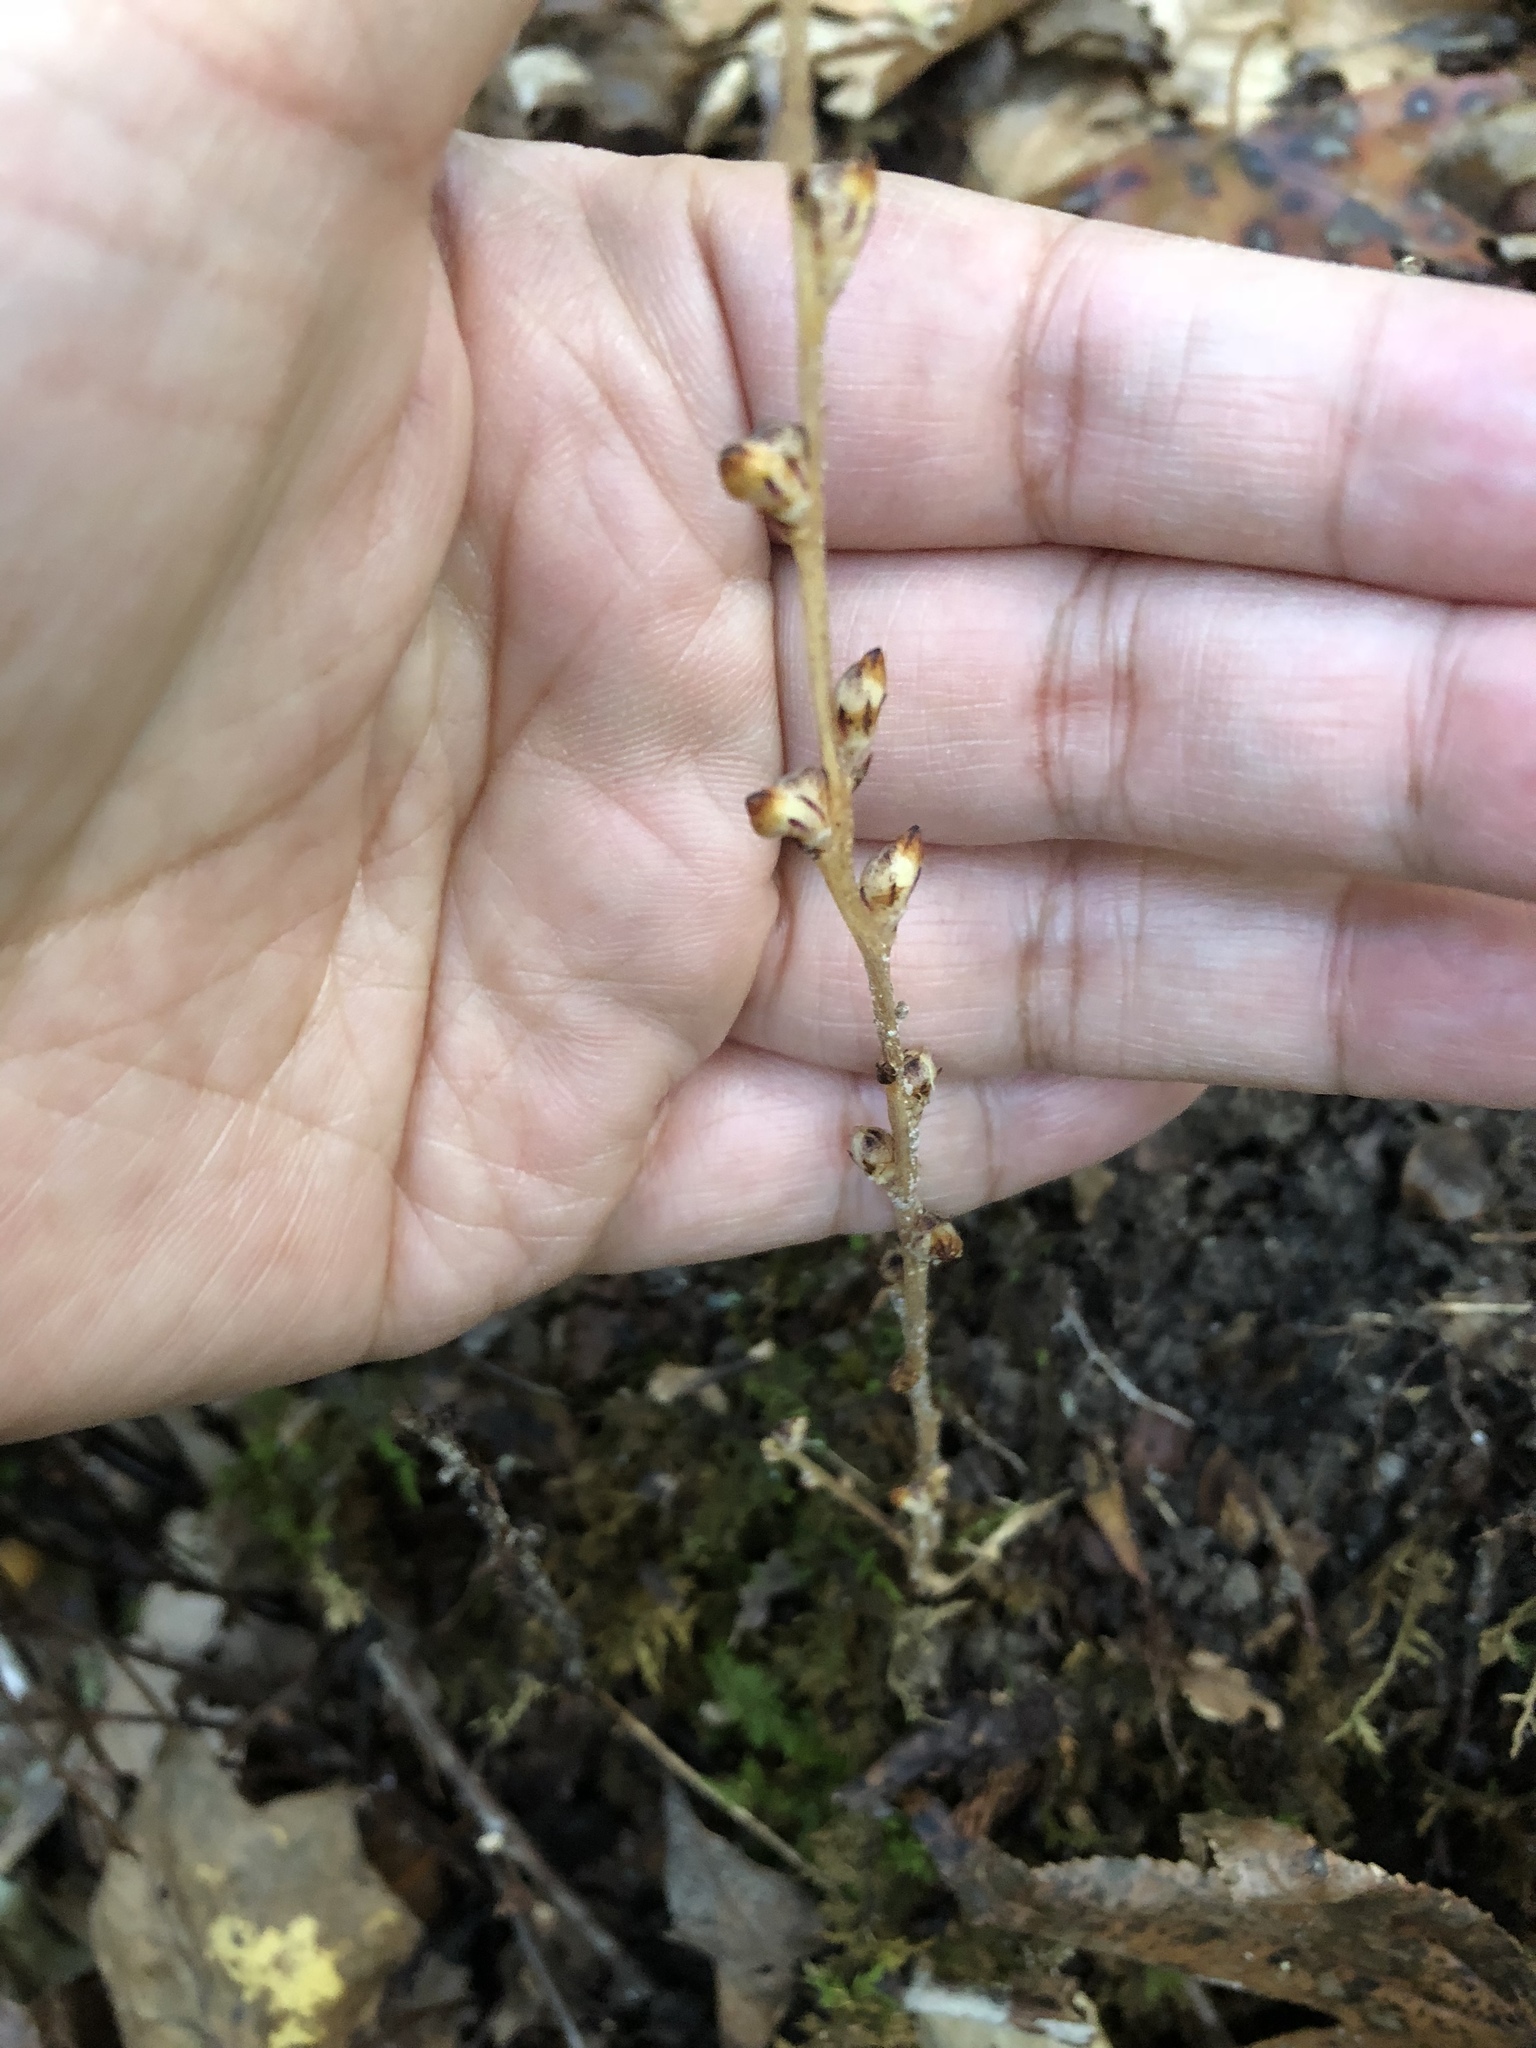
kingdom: Plantae
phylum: Tracheophyta
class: Magnoliopsida
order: Lamiales
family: Orobanchaceae
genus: Epifagus
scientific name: Epifagus virginiana
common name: Beechdrops
